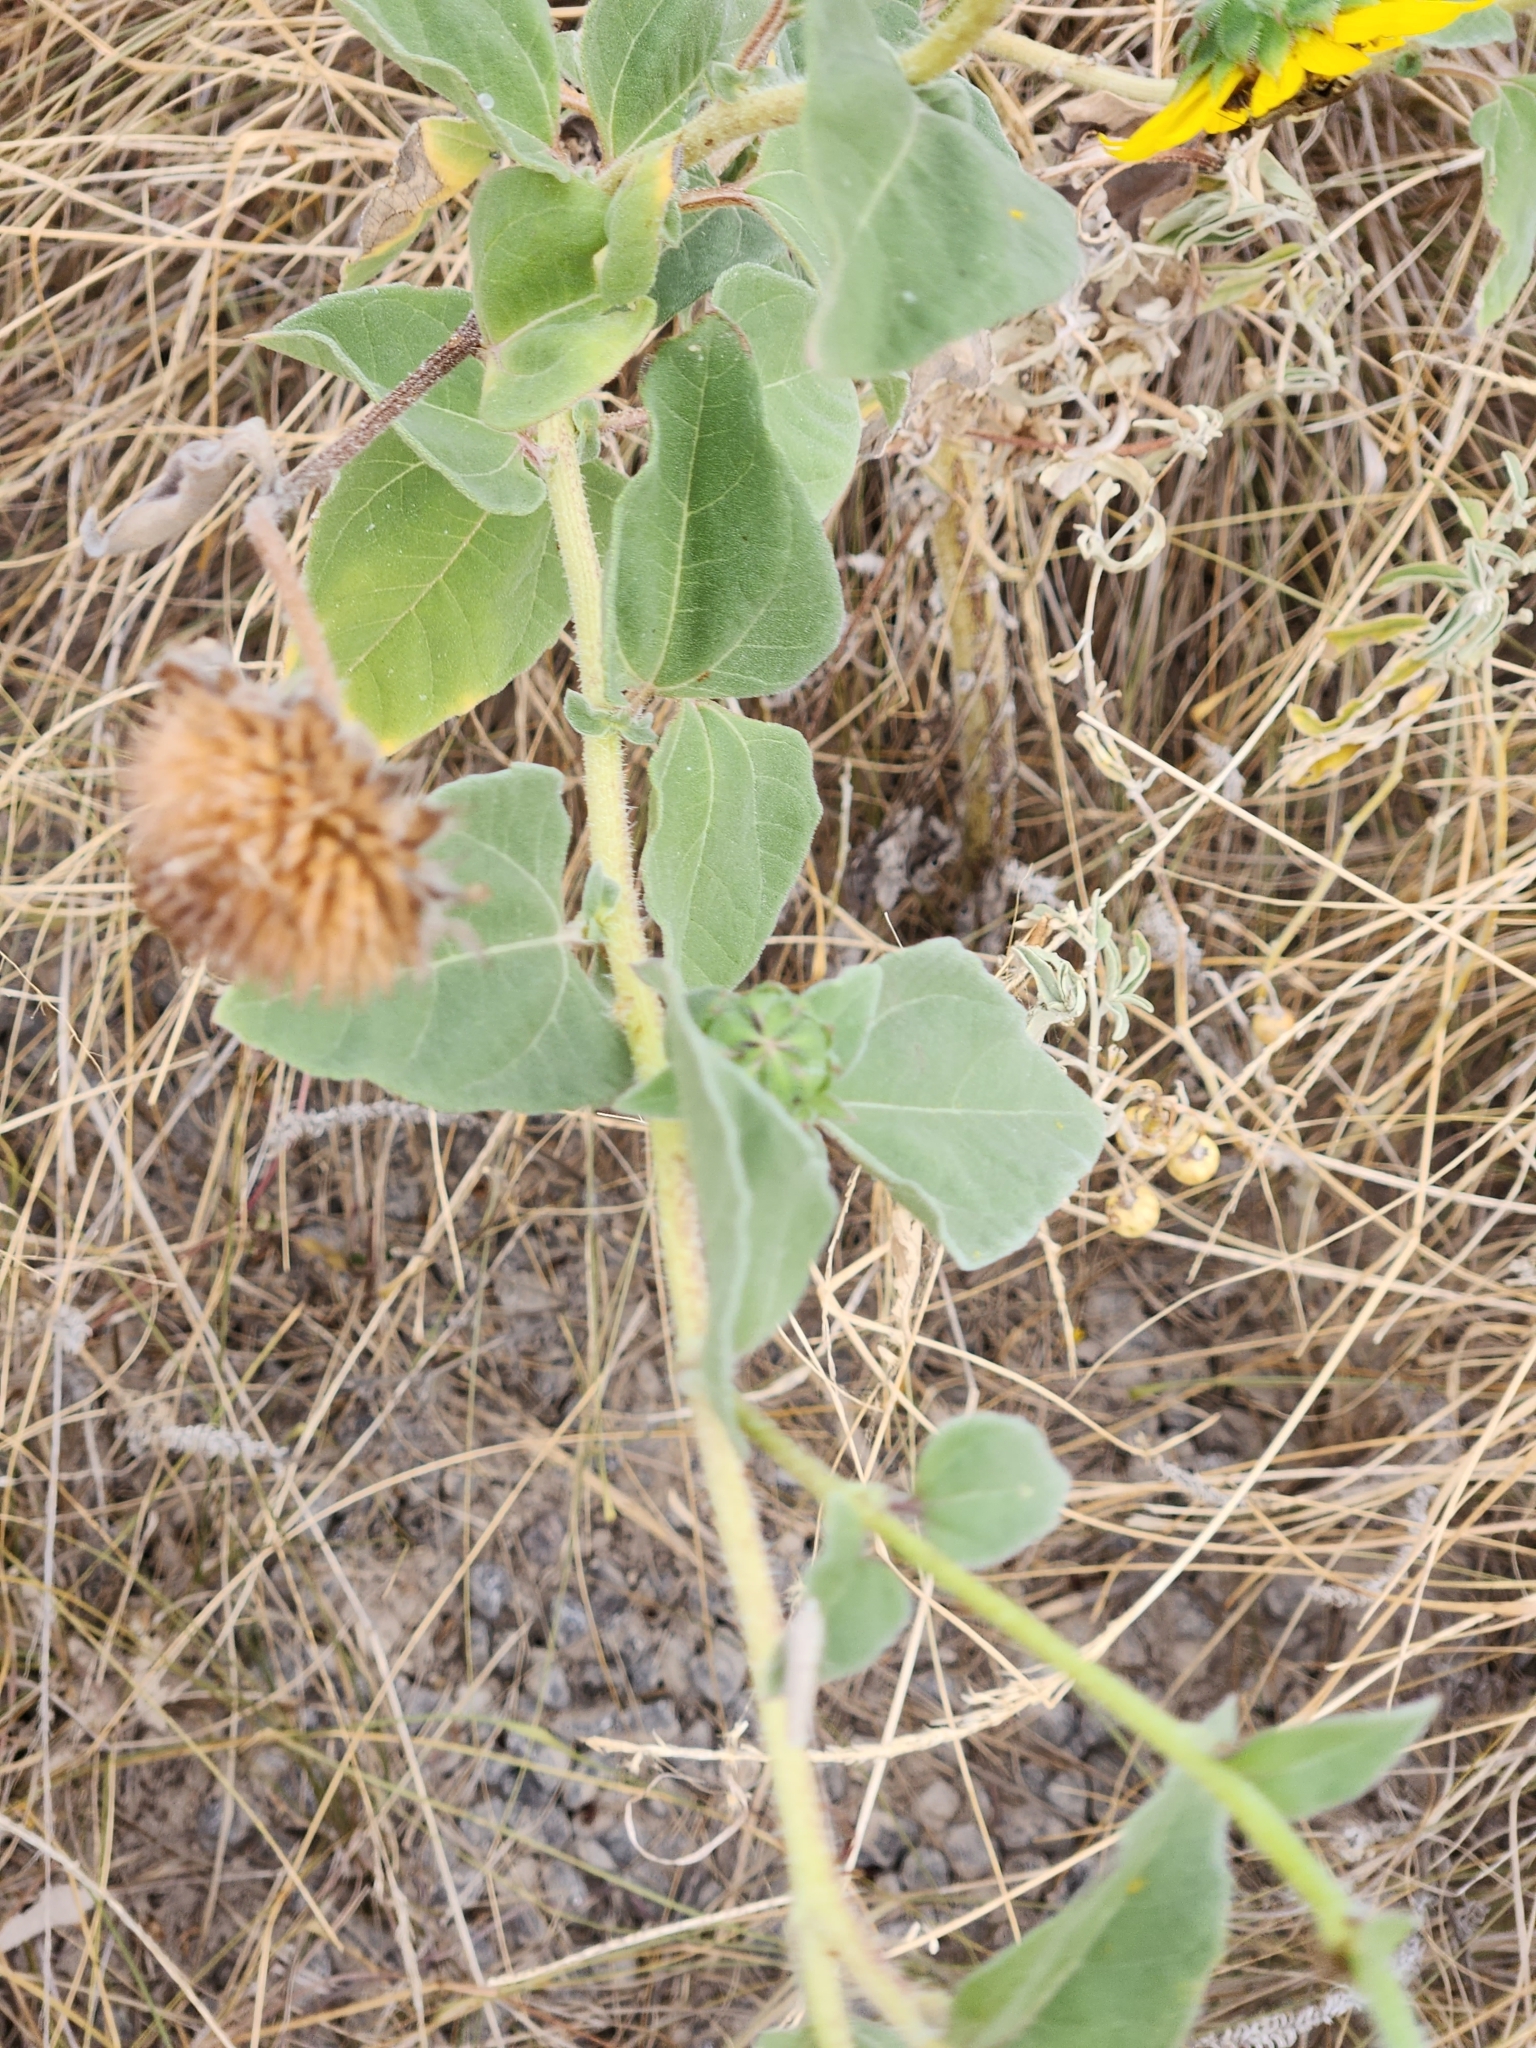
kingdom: Plantae
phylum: Tracheophyta
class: Magnoliopsida
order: Asterales
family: Asteraceae
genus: Helianthus
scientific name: Helianthus annuus
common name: Sunflower
